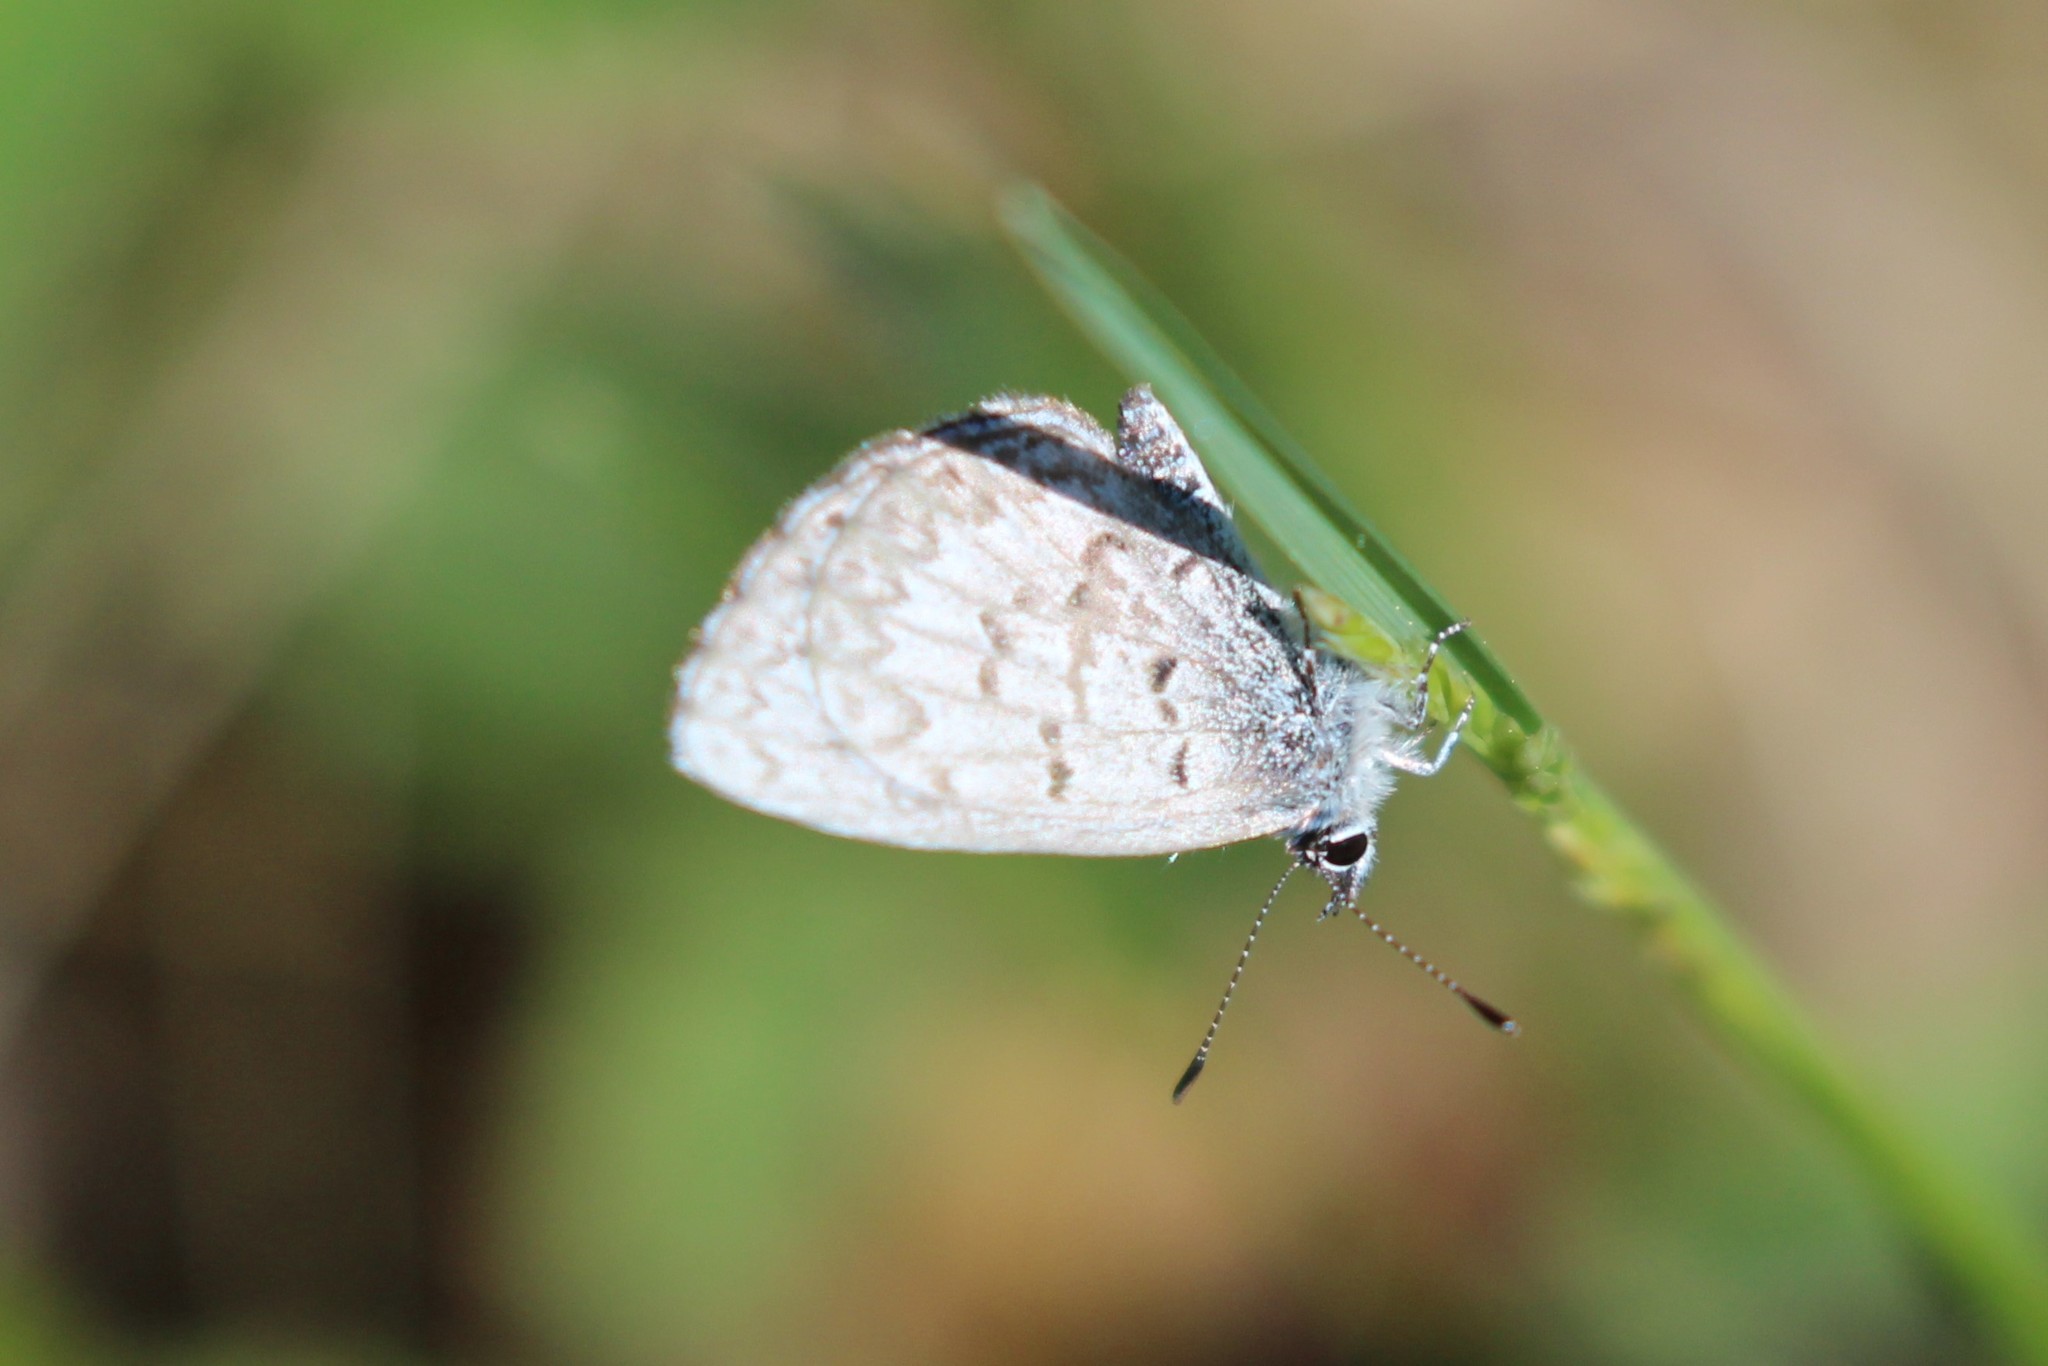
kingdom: Animalia
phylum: Arthropoda
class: Insecta
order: Lepidoptera
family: Lycaenidae
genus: Celastrina
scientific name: Celastrina lucia
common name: Lucia azure
